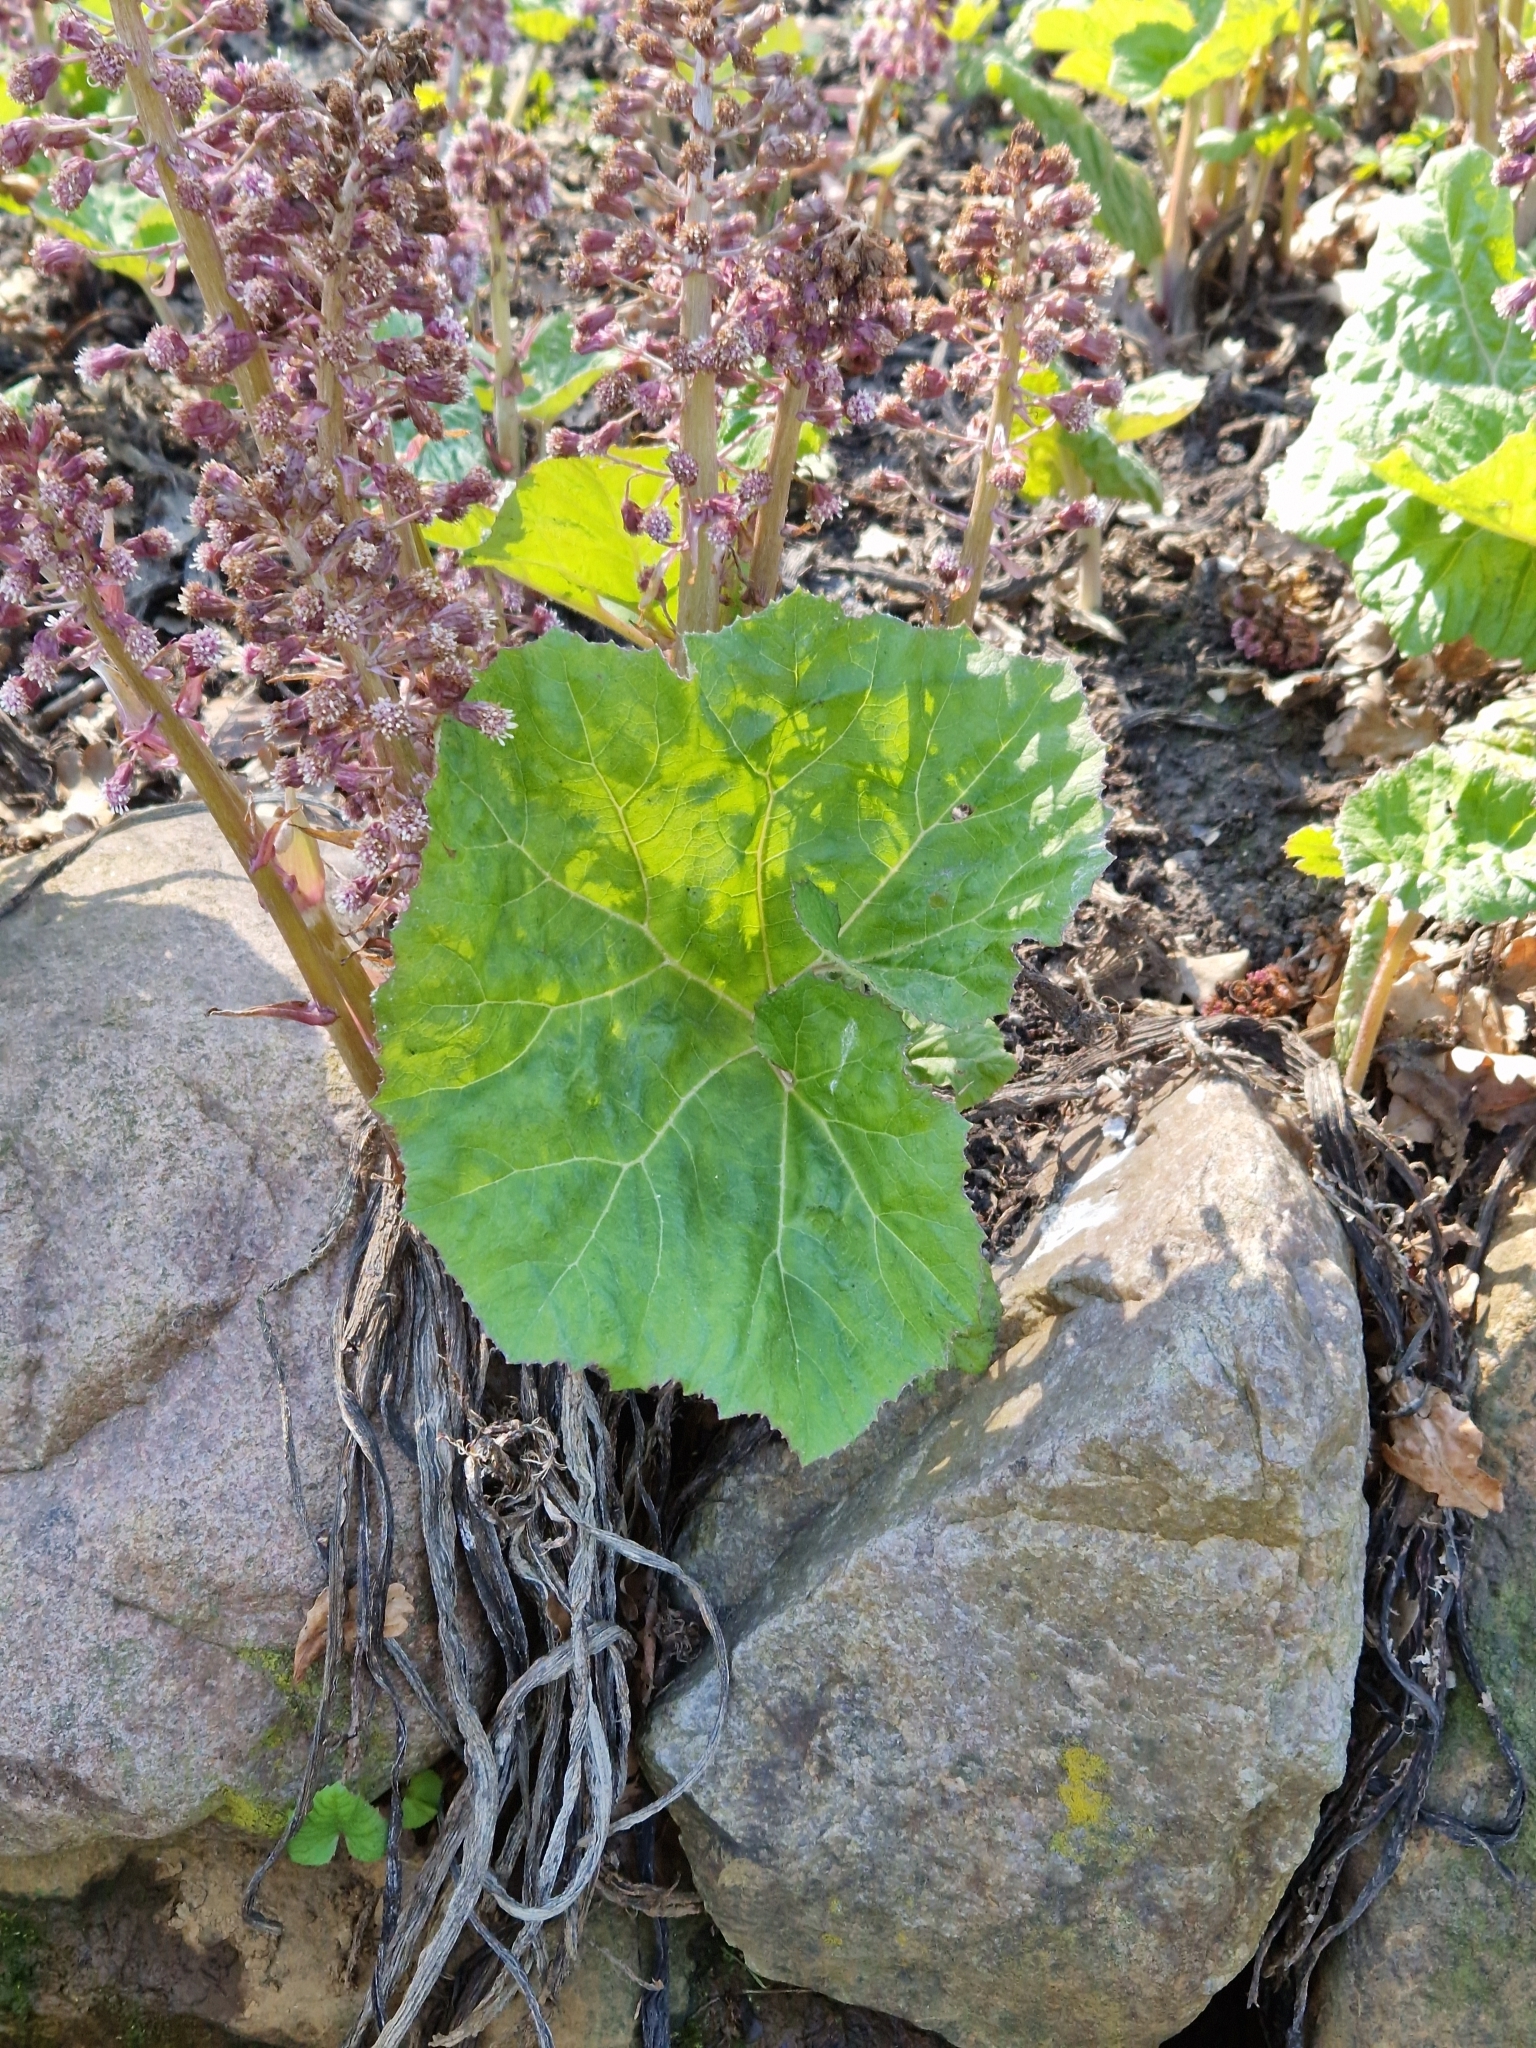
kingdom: Plantae
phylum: Tracheophyta
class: Magnoliopsida
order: Asterales
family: Asteraceae
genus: Petasites
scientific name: Petasites hybridus
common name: Butterbur
